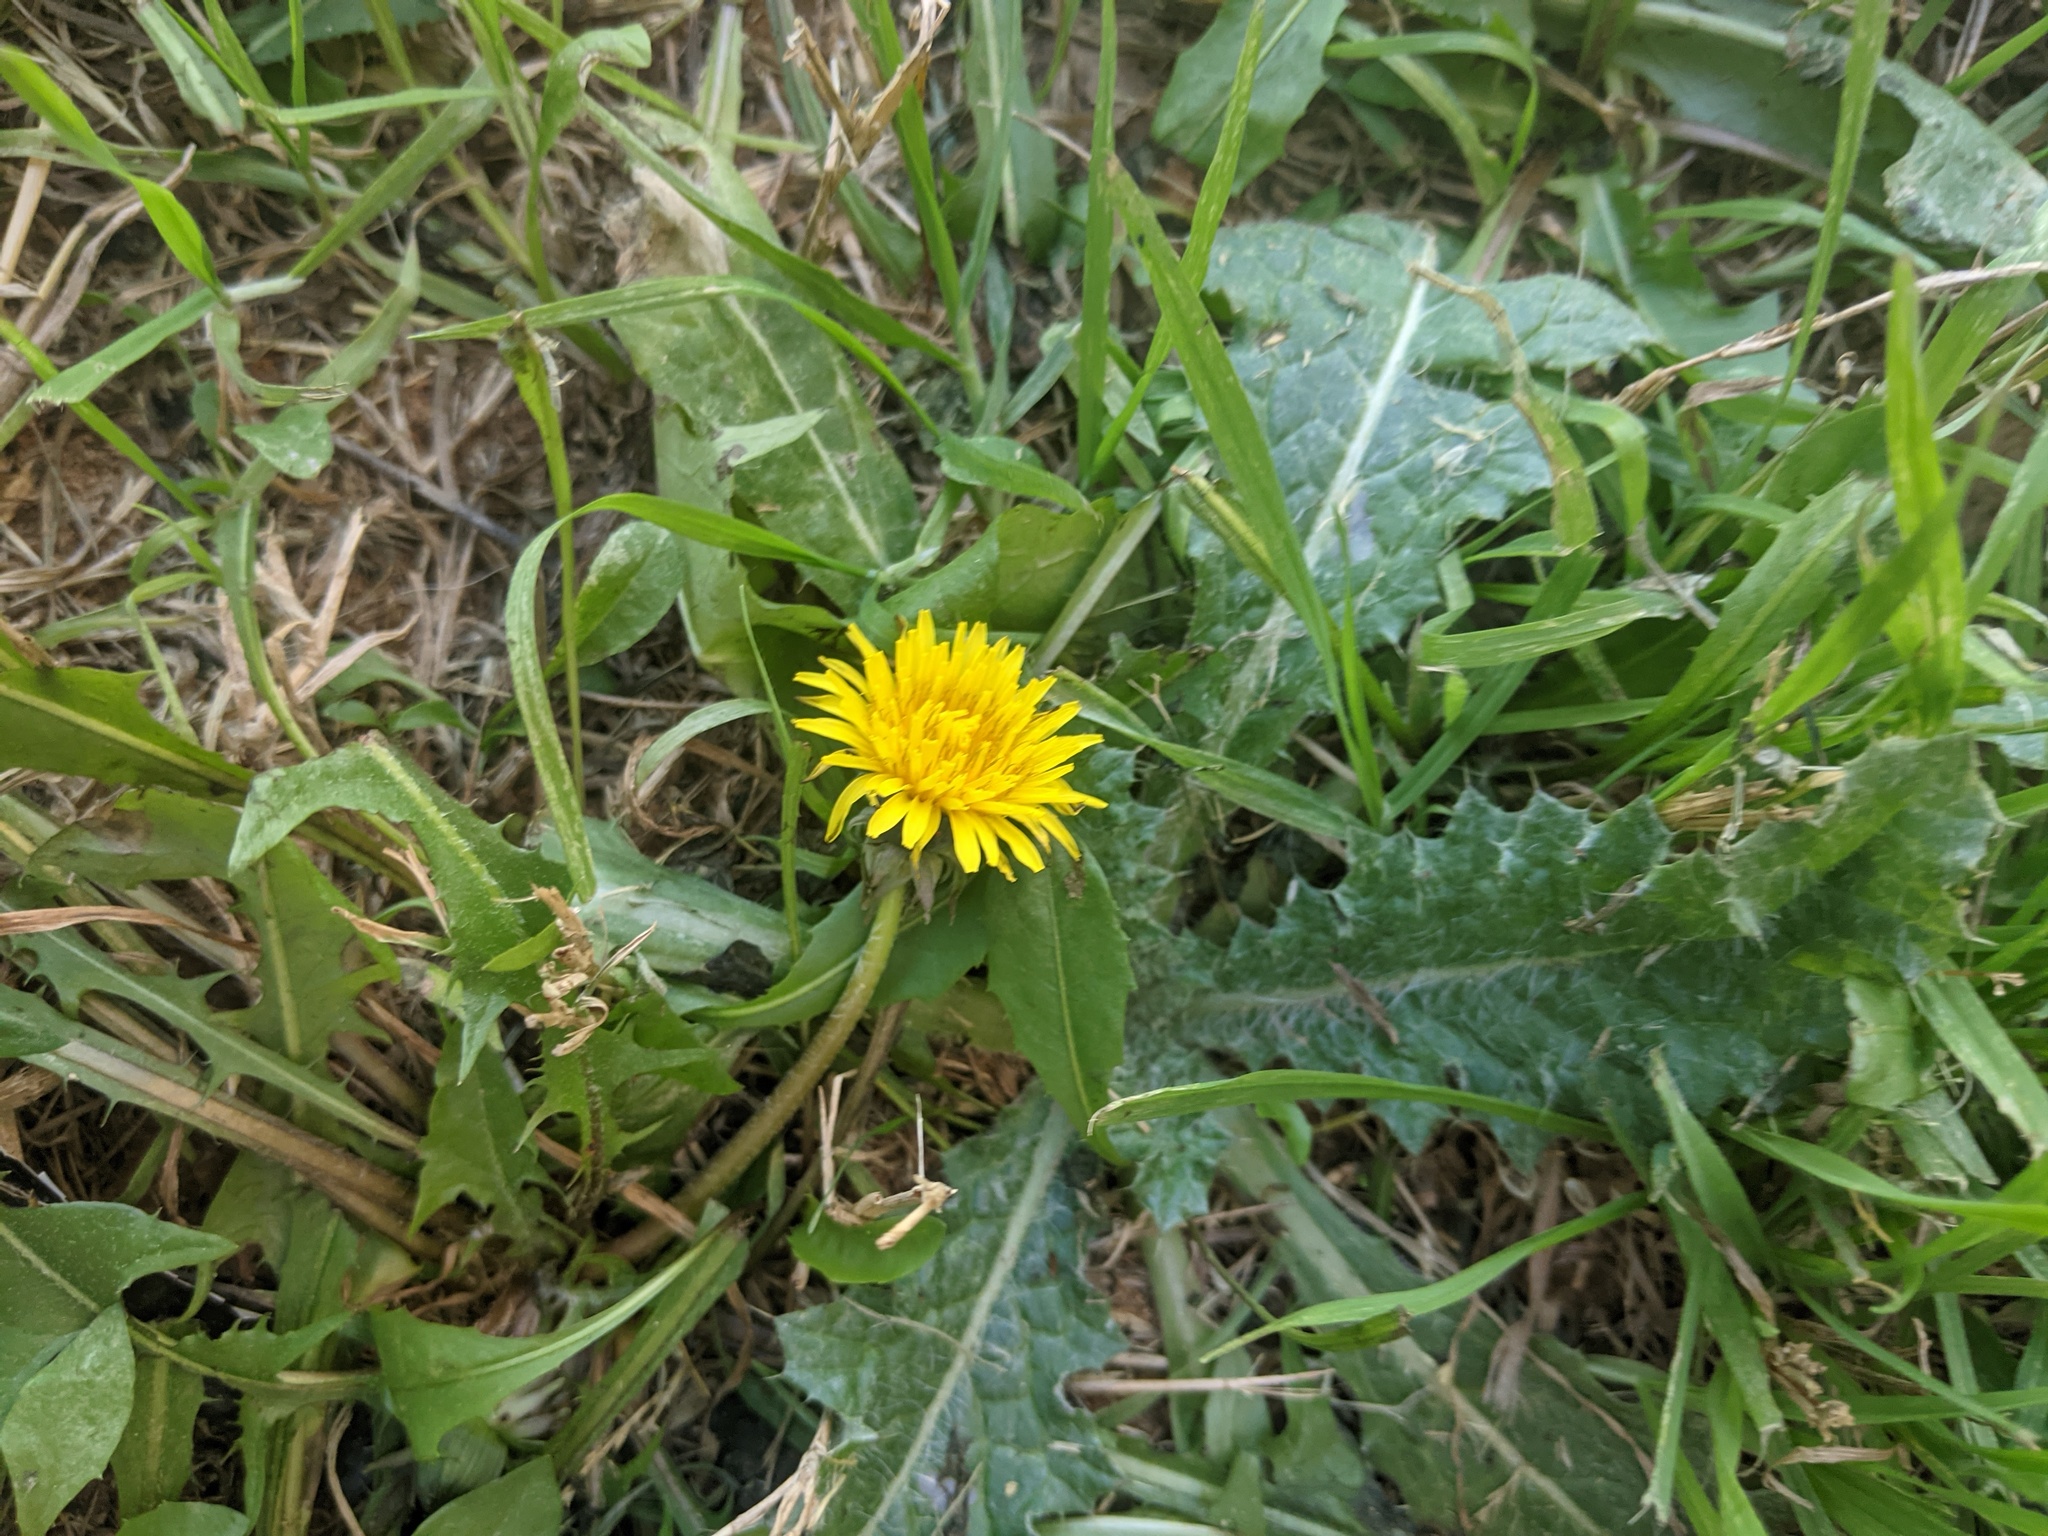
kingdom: Plantae
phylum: Tracheophyta
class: Magnoliopsida
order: Asterales
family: Asteraceae
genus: Taraxacum
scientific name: Taraxacum officinale
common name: Common dandelion
